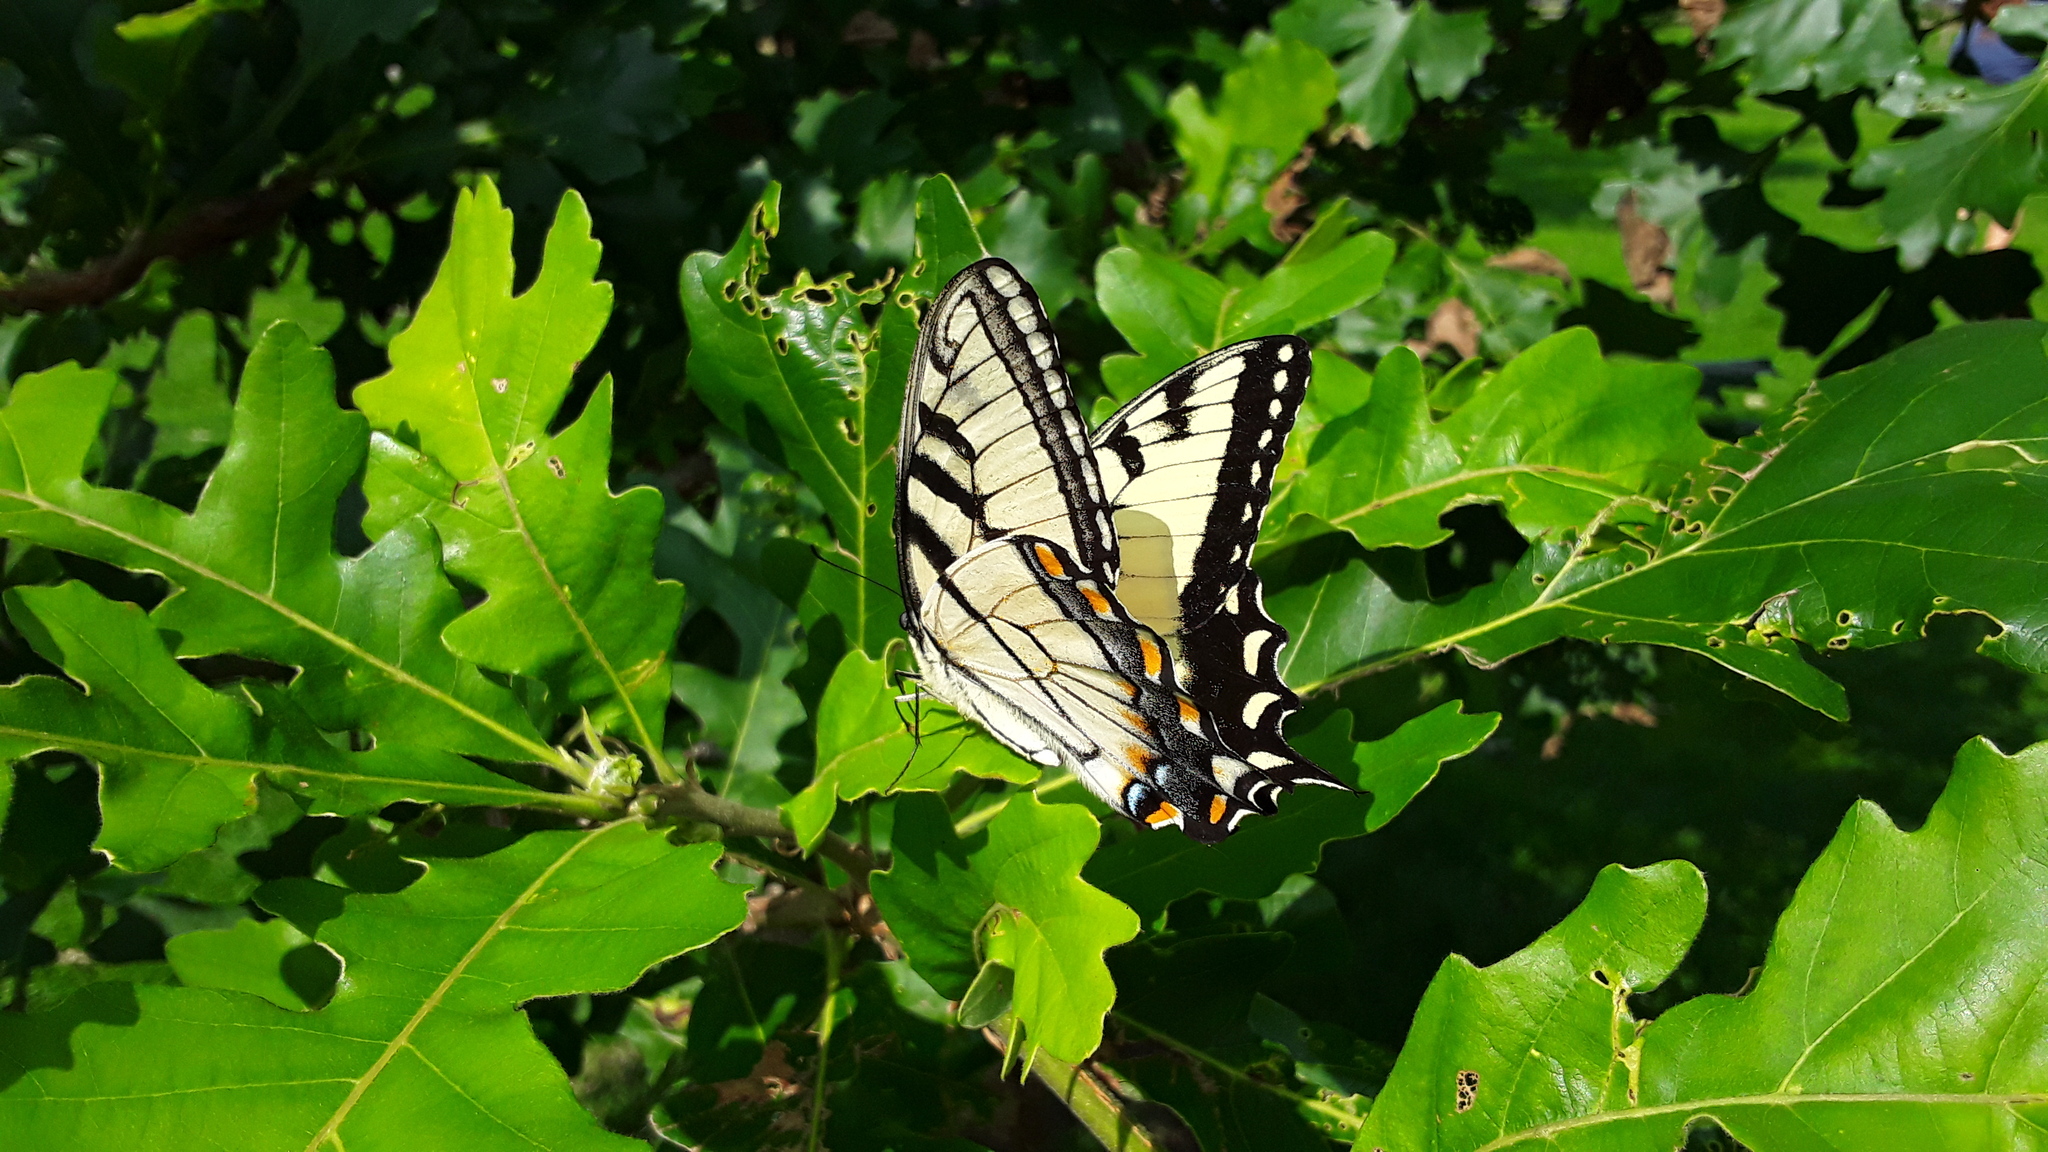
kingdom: Animalia
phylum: Arthropoda
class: Insecta
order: Lepidoptera
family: Papilionidae
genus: Papilio
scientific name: Papilio glaucus
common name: Tiger swallowtail
